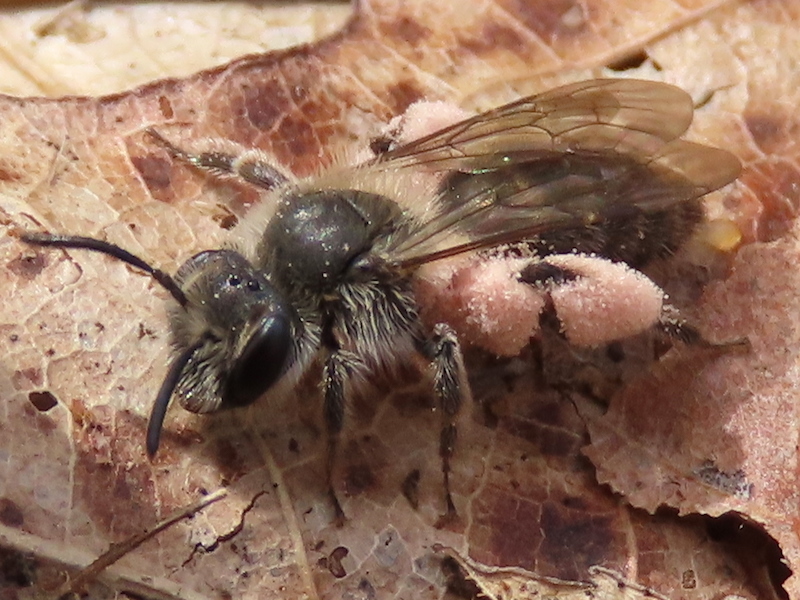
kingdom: Animalia
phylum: Arthropoda
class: Insecta
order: Hymenoptera
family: Andrenidae
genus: Andrena
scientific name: Andrena erigeniae
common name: Spring beauty miner
